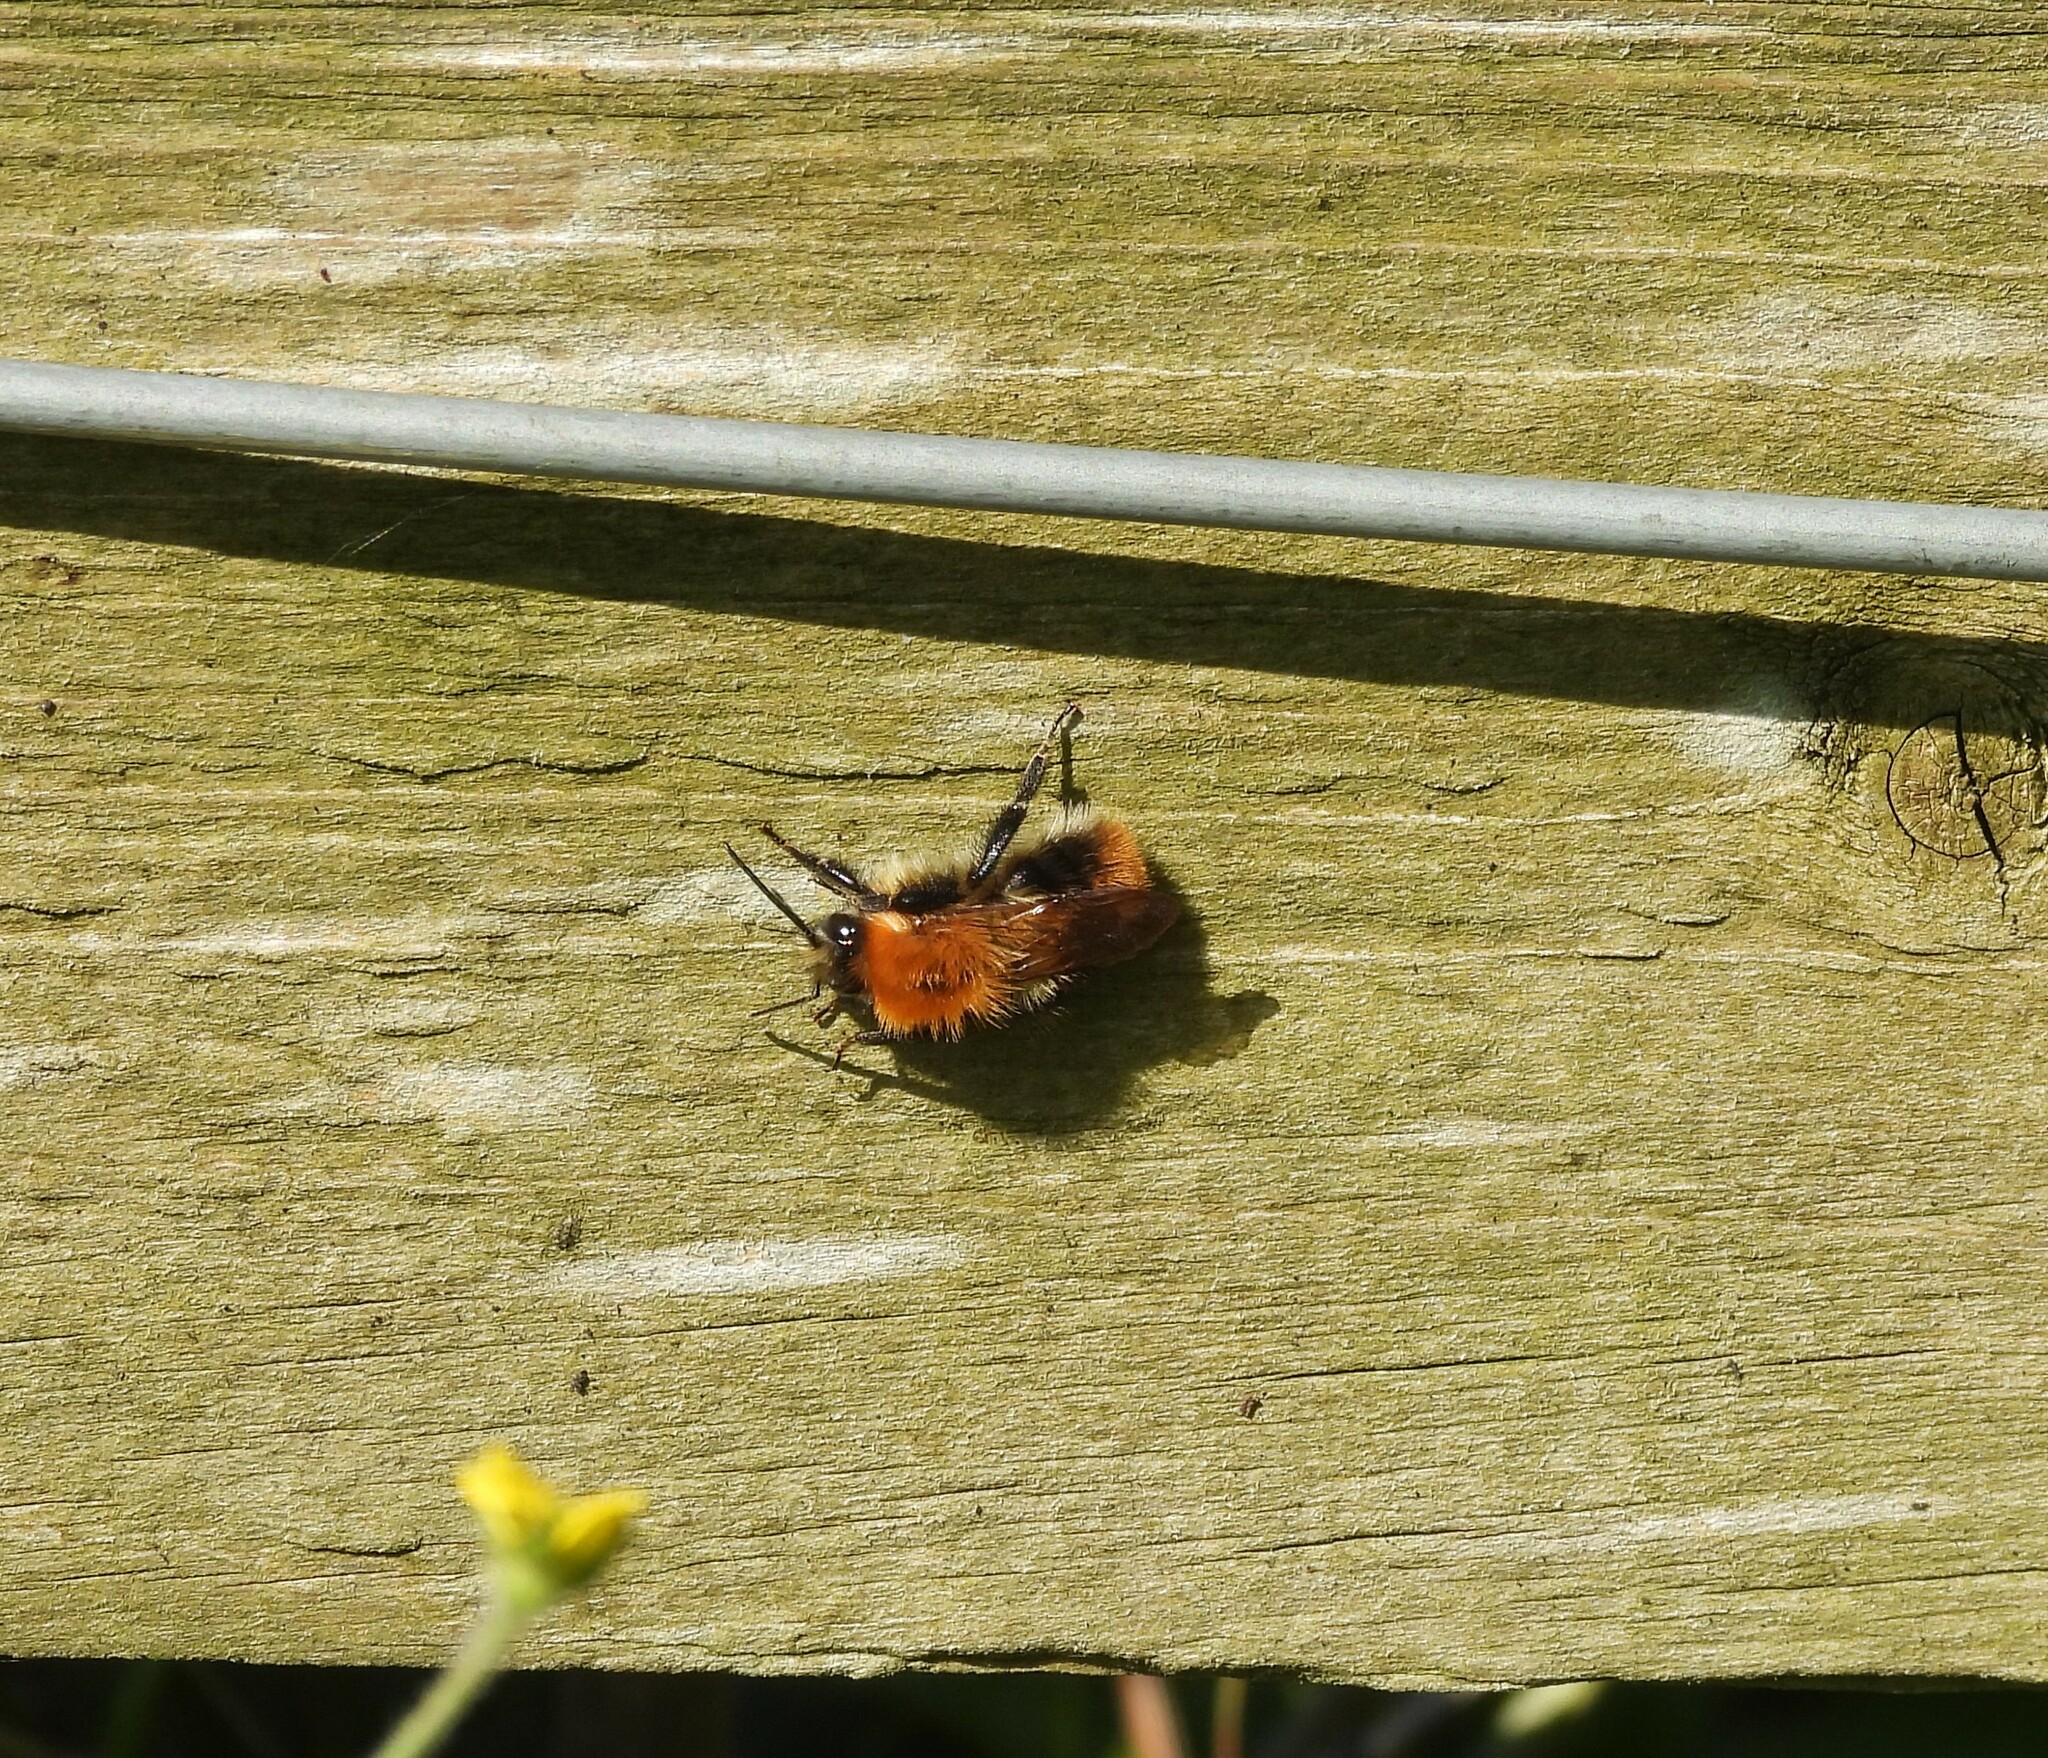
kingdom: Animalia
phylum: Arthropoda
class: Insecta
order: Hymenoptera
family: Apidae
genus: Bombus
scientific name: Bombus pascuorum
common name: Common carder bee
